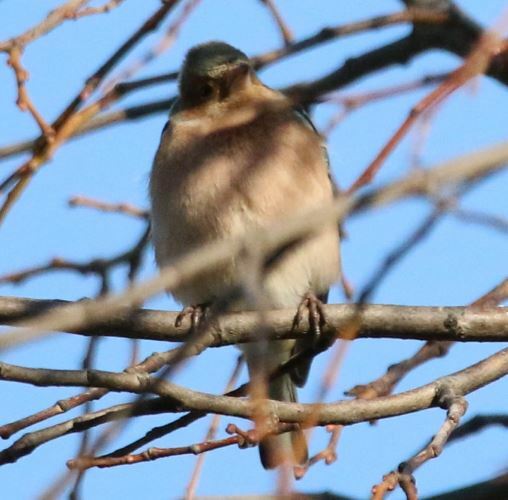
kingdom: Animalia
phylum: Chordata
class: Aves
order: Passeriformes
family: Fringillidae
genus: Fringilla
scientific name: Fringilla coelebs
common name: Common chaffinch
